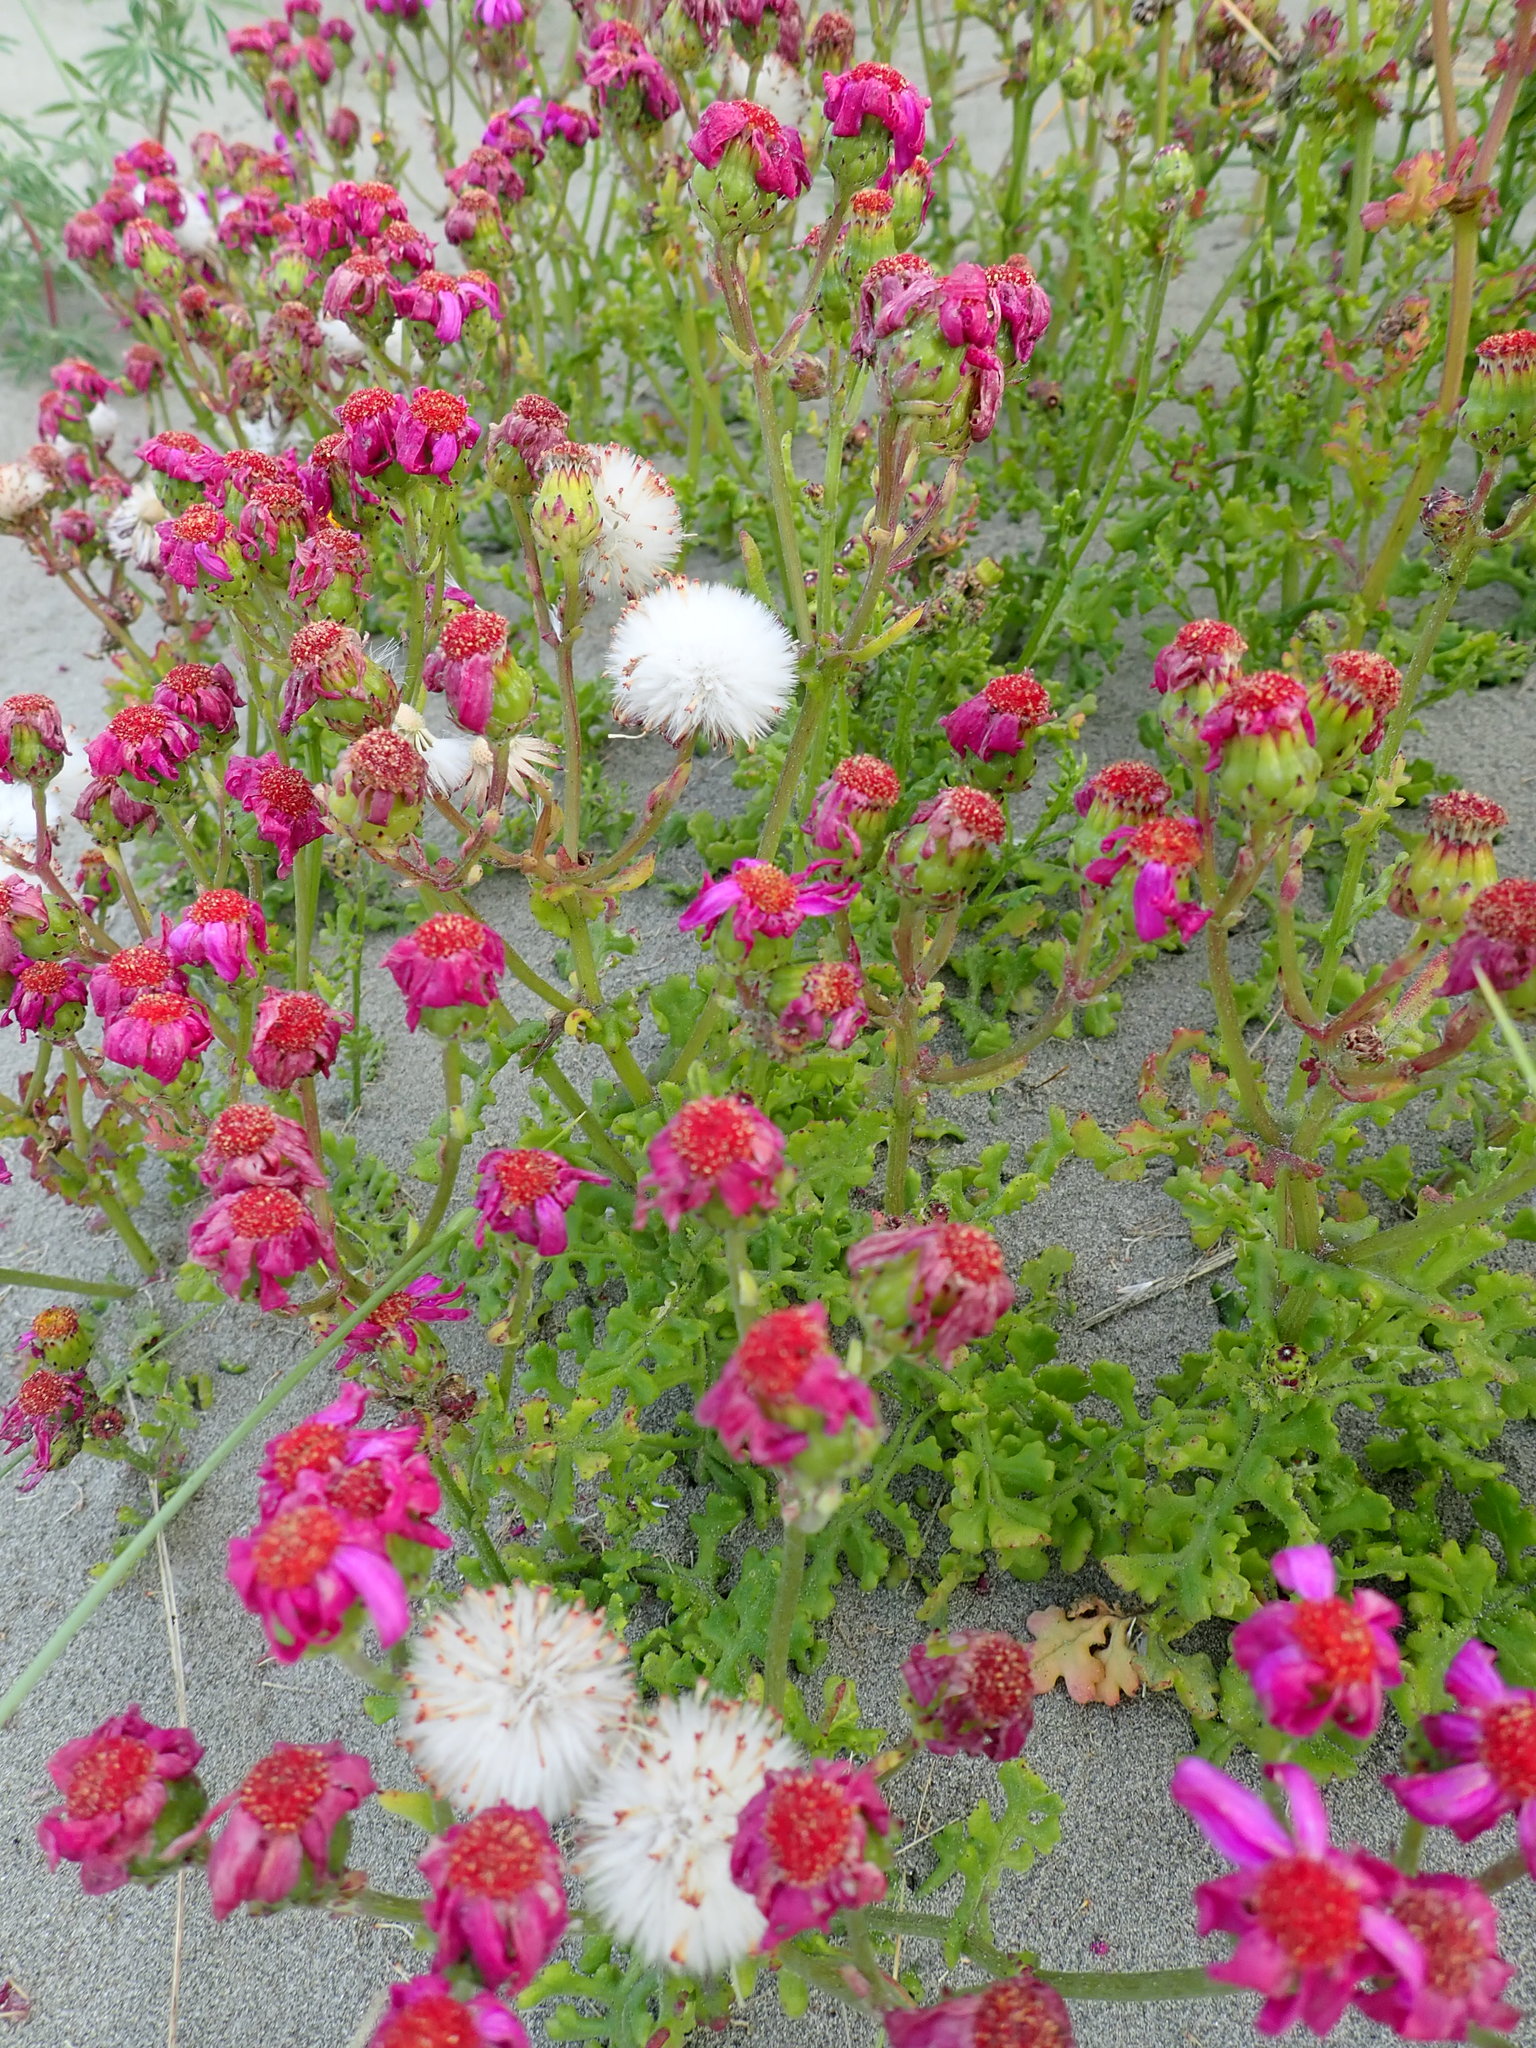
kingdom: Plantae
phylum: Tracheophyta
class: Magnoliopsida
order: Asterales
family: Asteraceae
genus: Senecio
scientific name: Senecio elegans
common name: Purple groundsel
